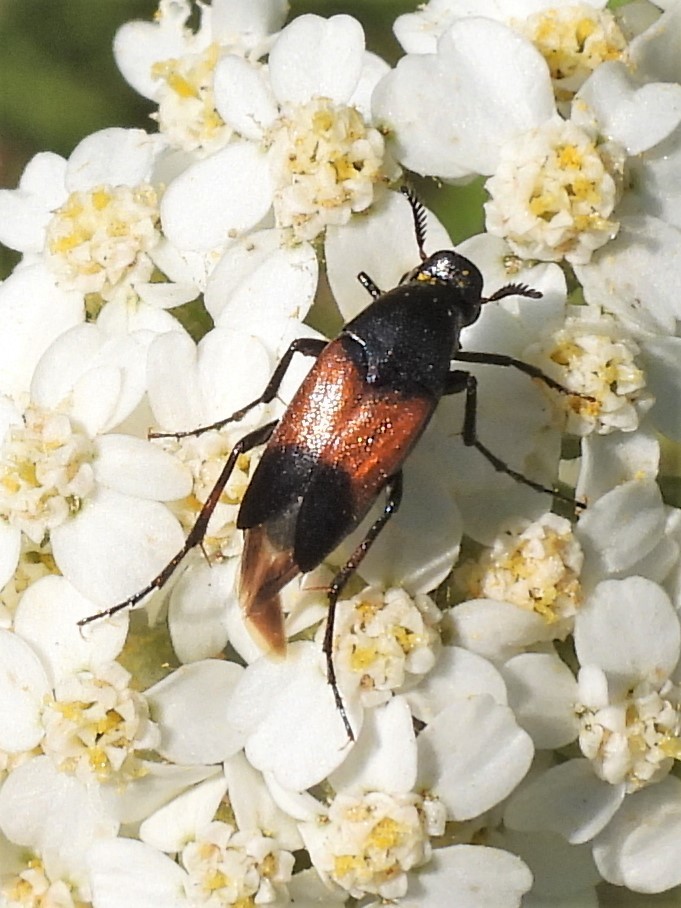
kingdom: Animalia
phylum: Arthropoda
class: Insecta
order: Coleoptera
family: Ripiphoridae
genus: Macrosiagon
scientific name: Macrosiagon cruentum
